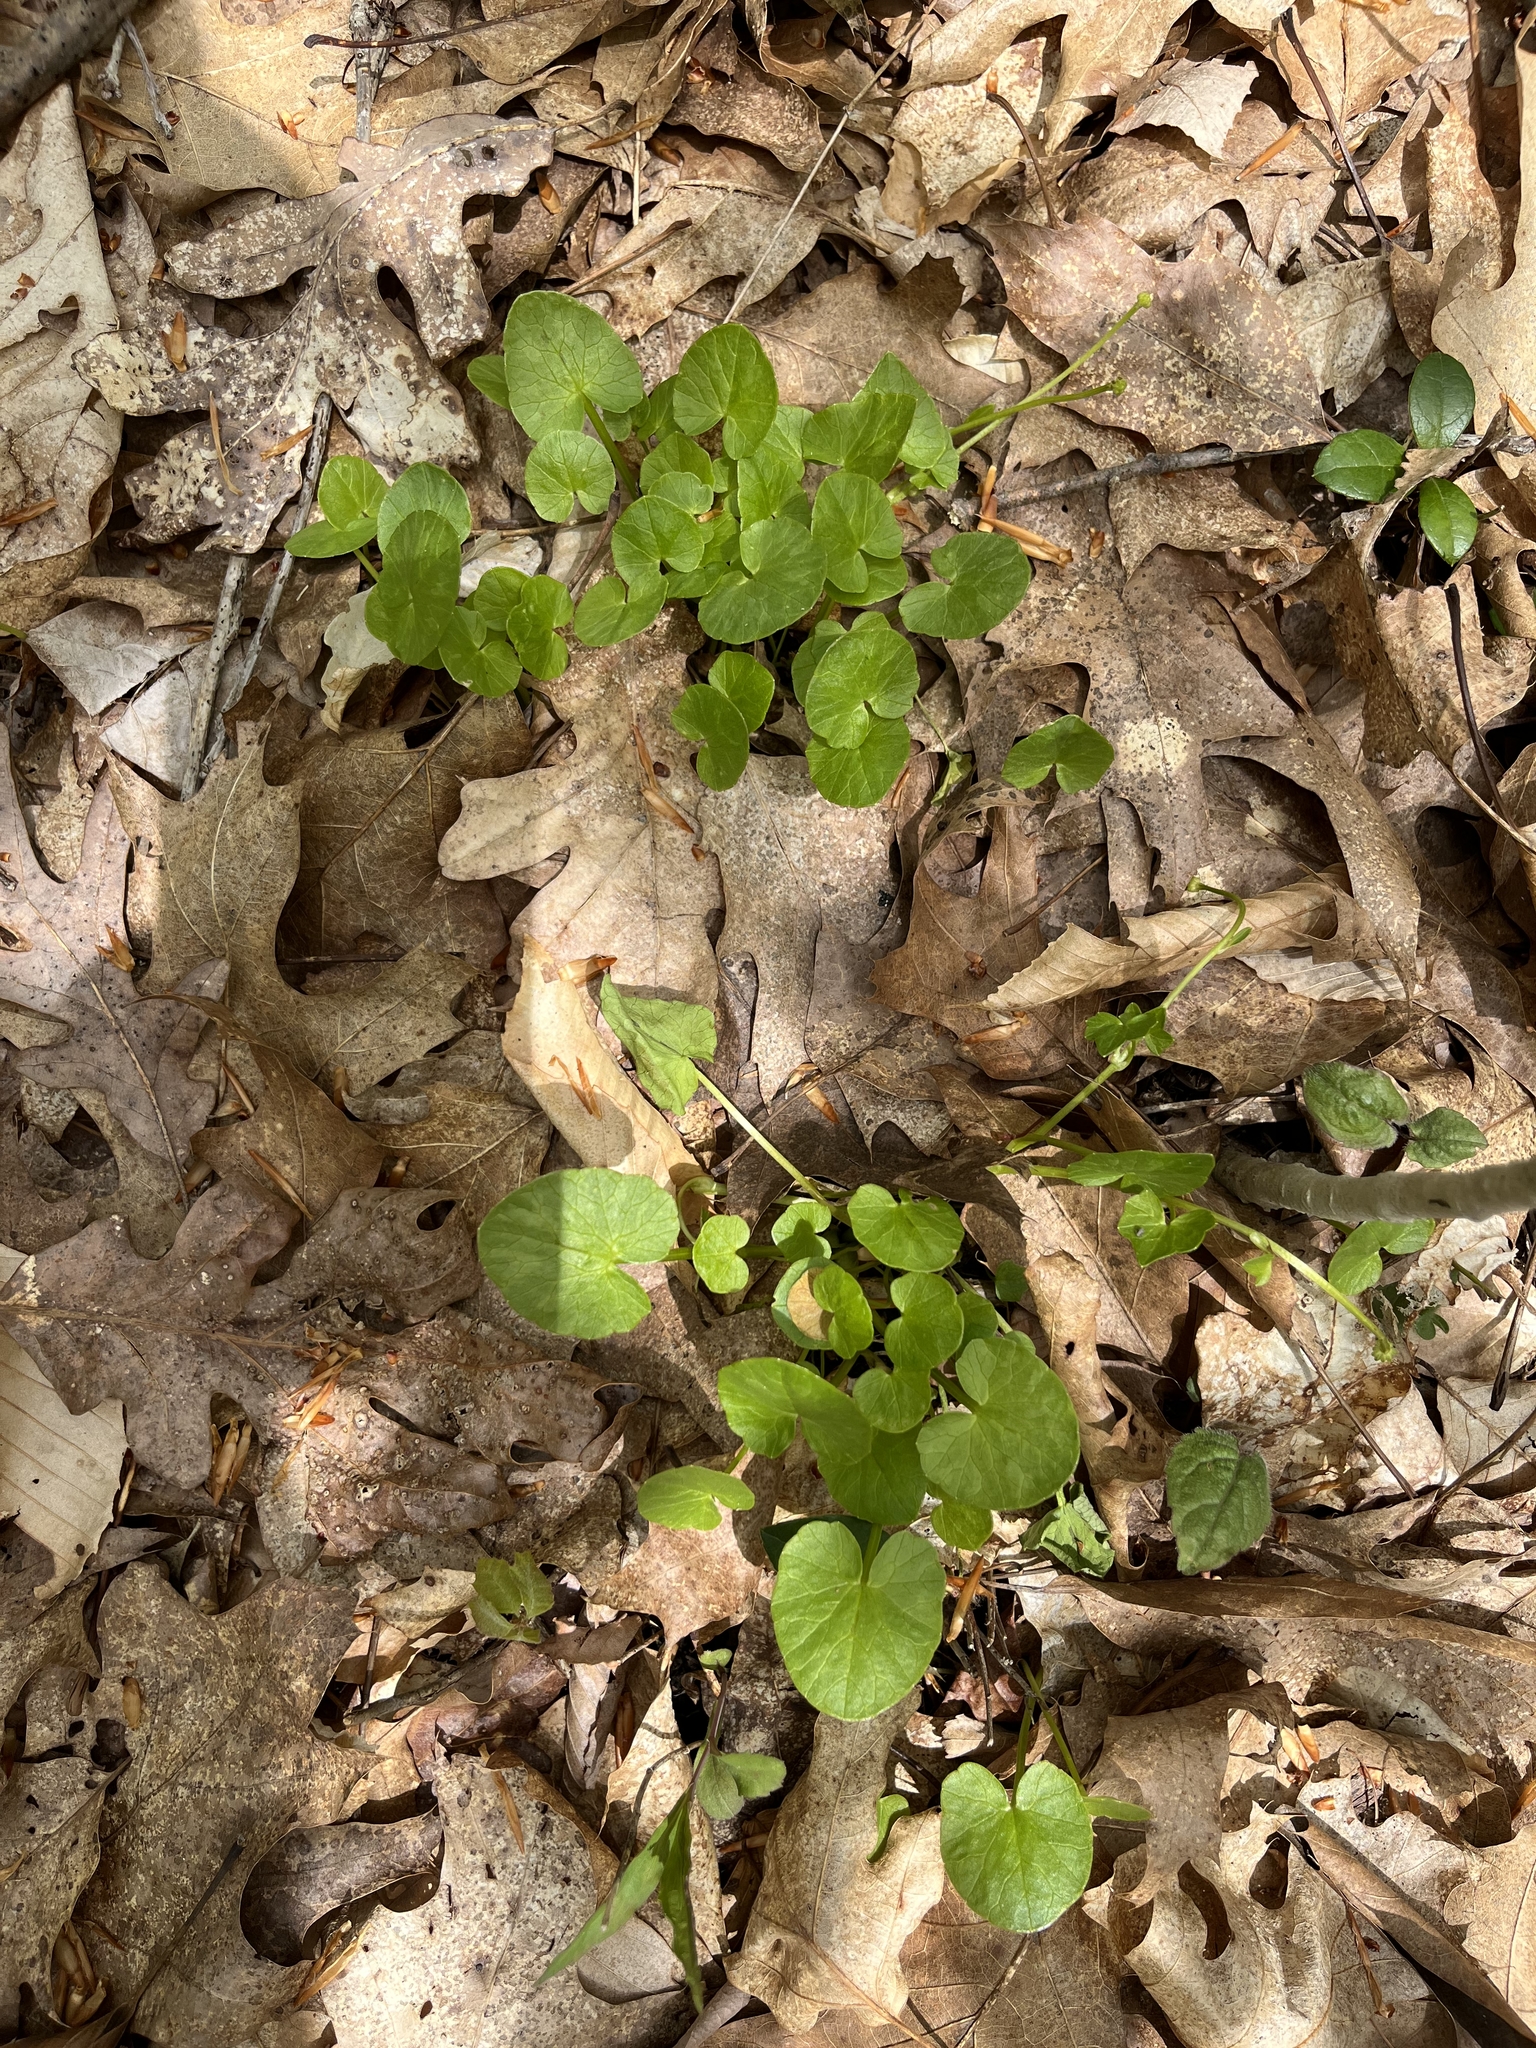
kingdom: Plantae
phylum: Tracheophyta
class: Magnoliopsida
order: Ranunculales
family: Ranunculaceae
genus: Ficaria
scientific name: Ficaria verna
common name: Lesser celandine
